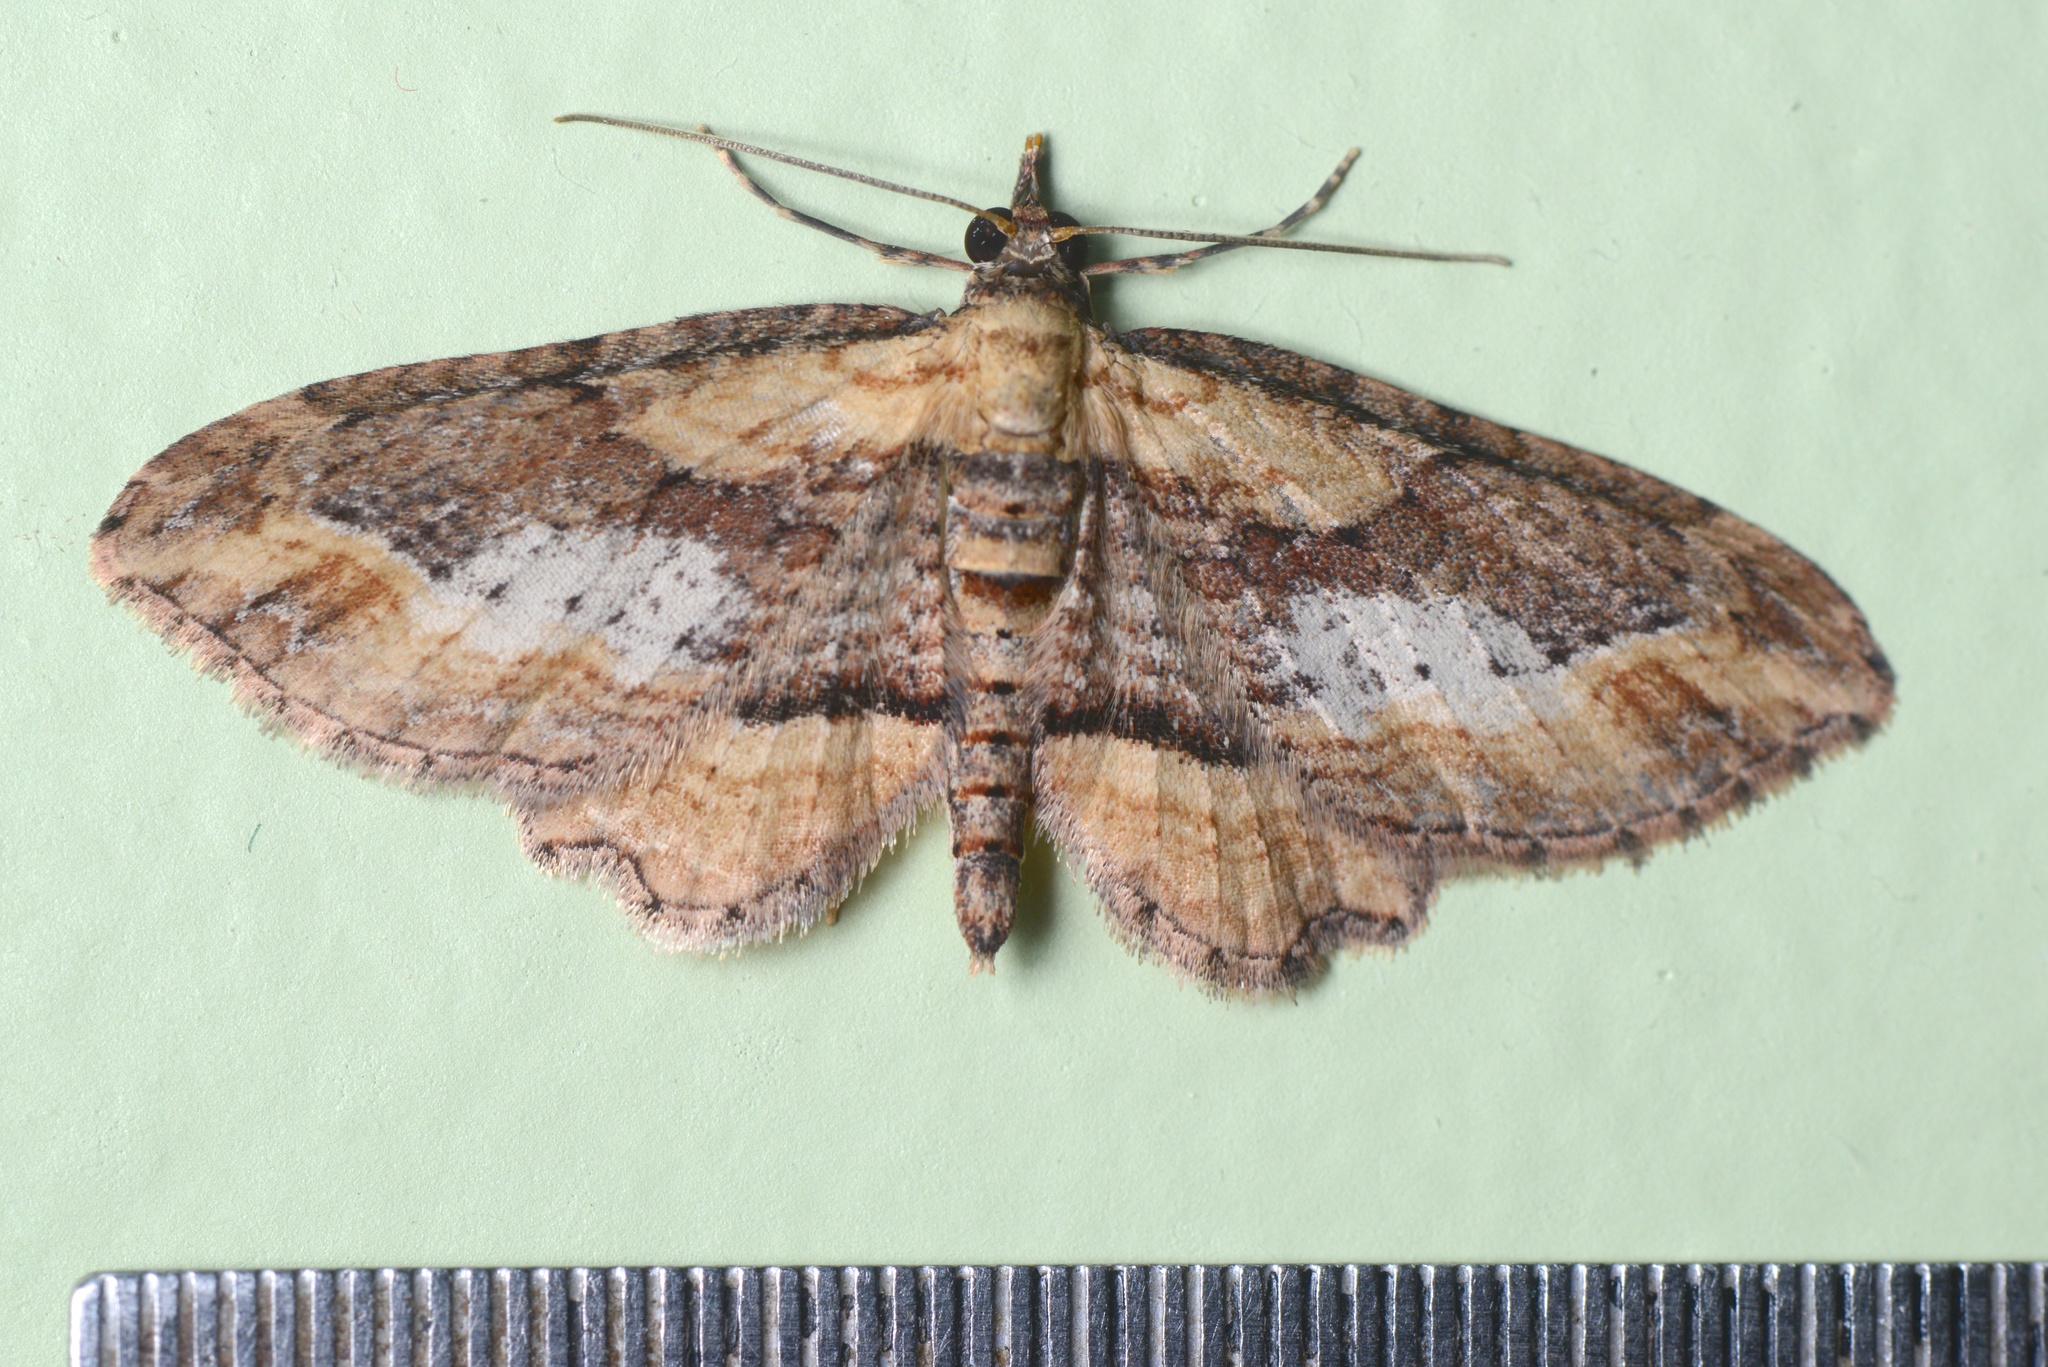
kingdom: Animalia
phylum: Arthropoda
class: Insecta
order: Lepidoptera
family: Geometridae
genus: Chloroclystis
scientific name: Chloroclystis filata
